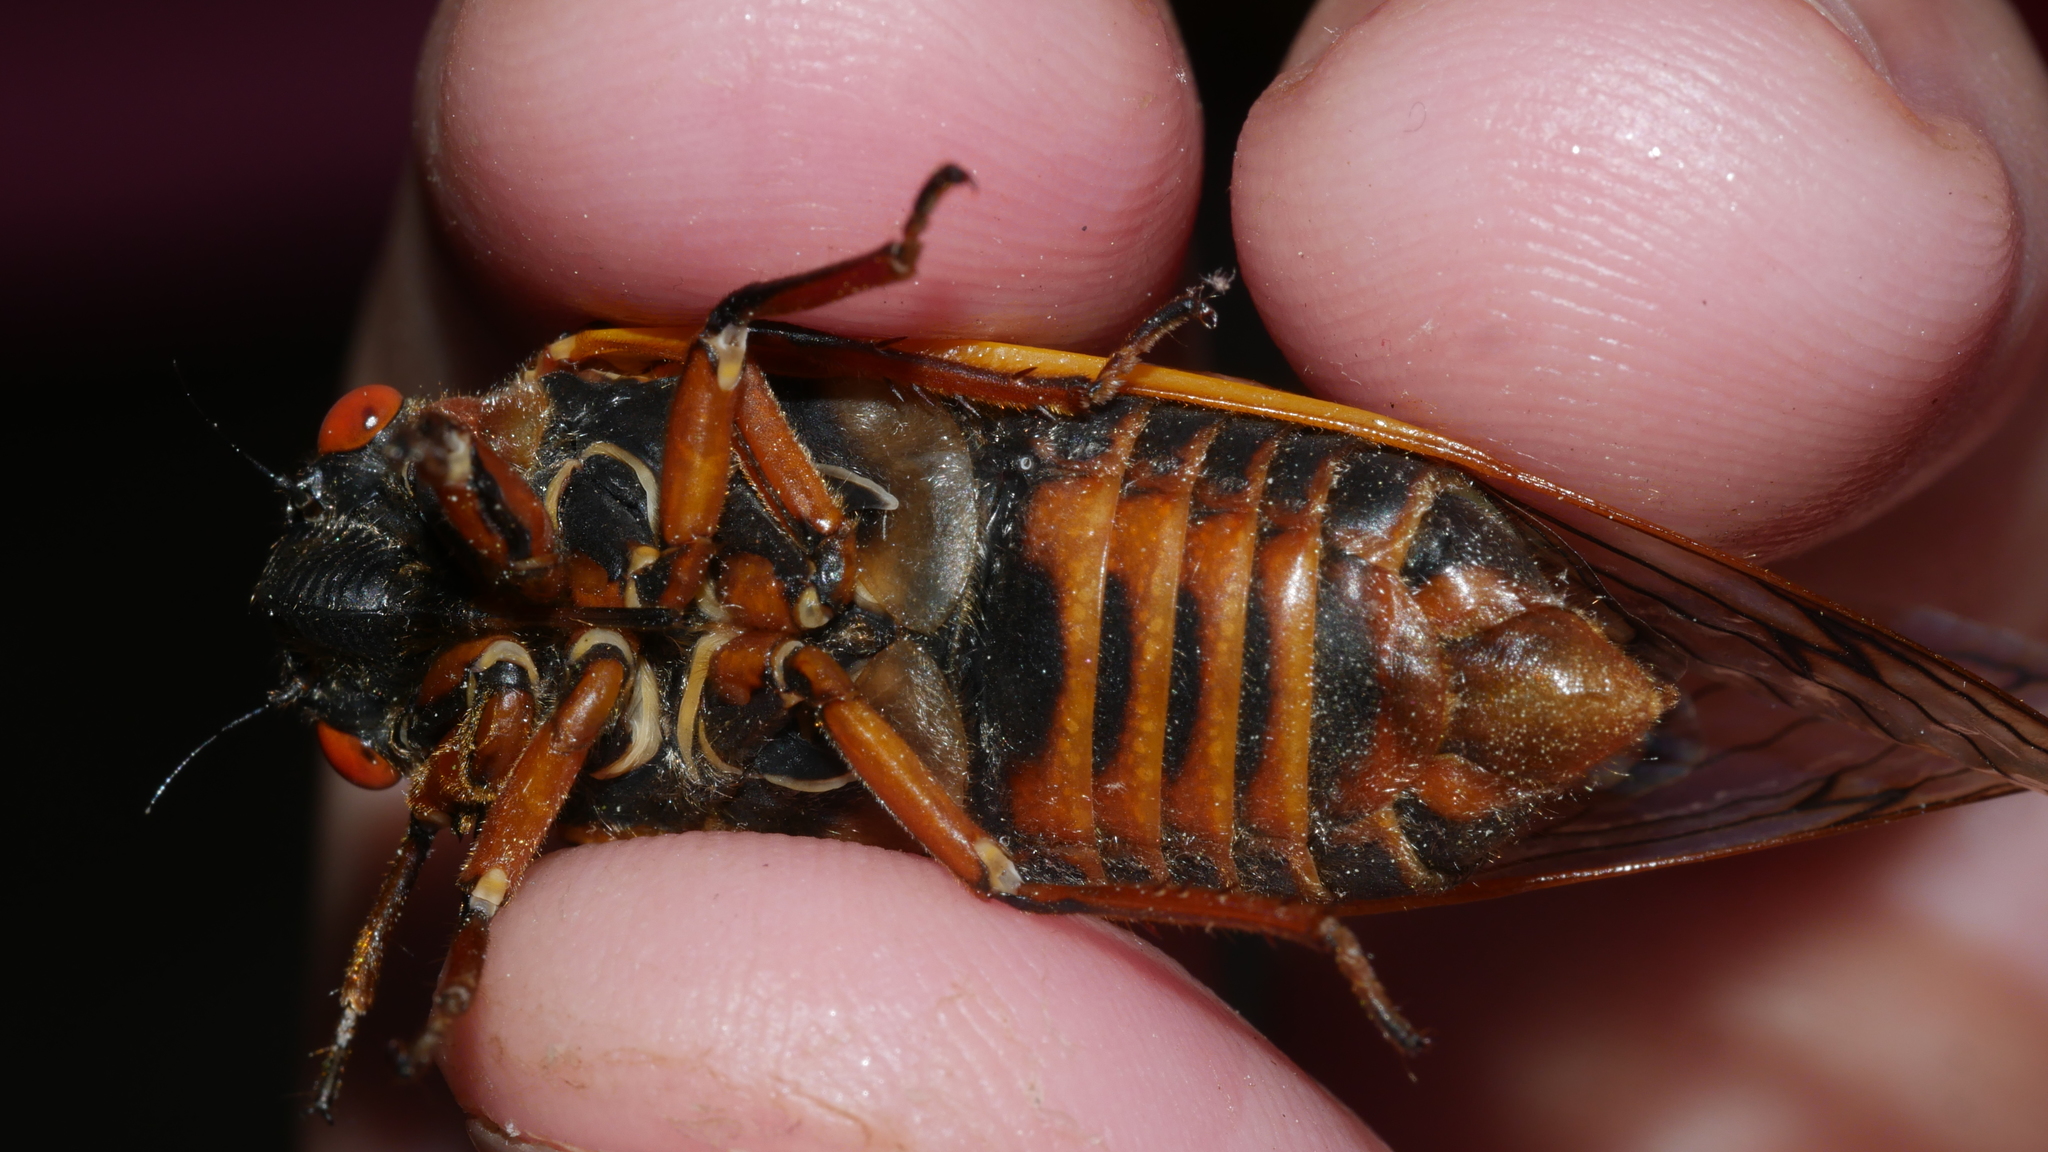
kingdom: Animalia
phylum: Arthropoda
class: Insecta
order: Hemiptera
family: Cicadidae
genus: Magicicada
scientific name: Magicicada septendecim
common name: Periodical cicada
